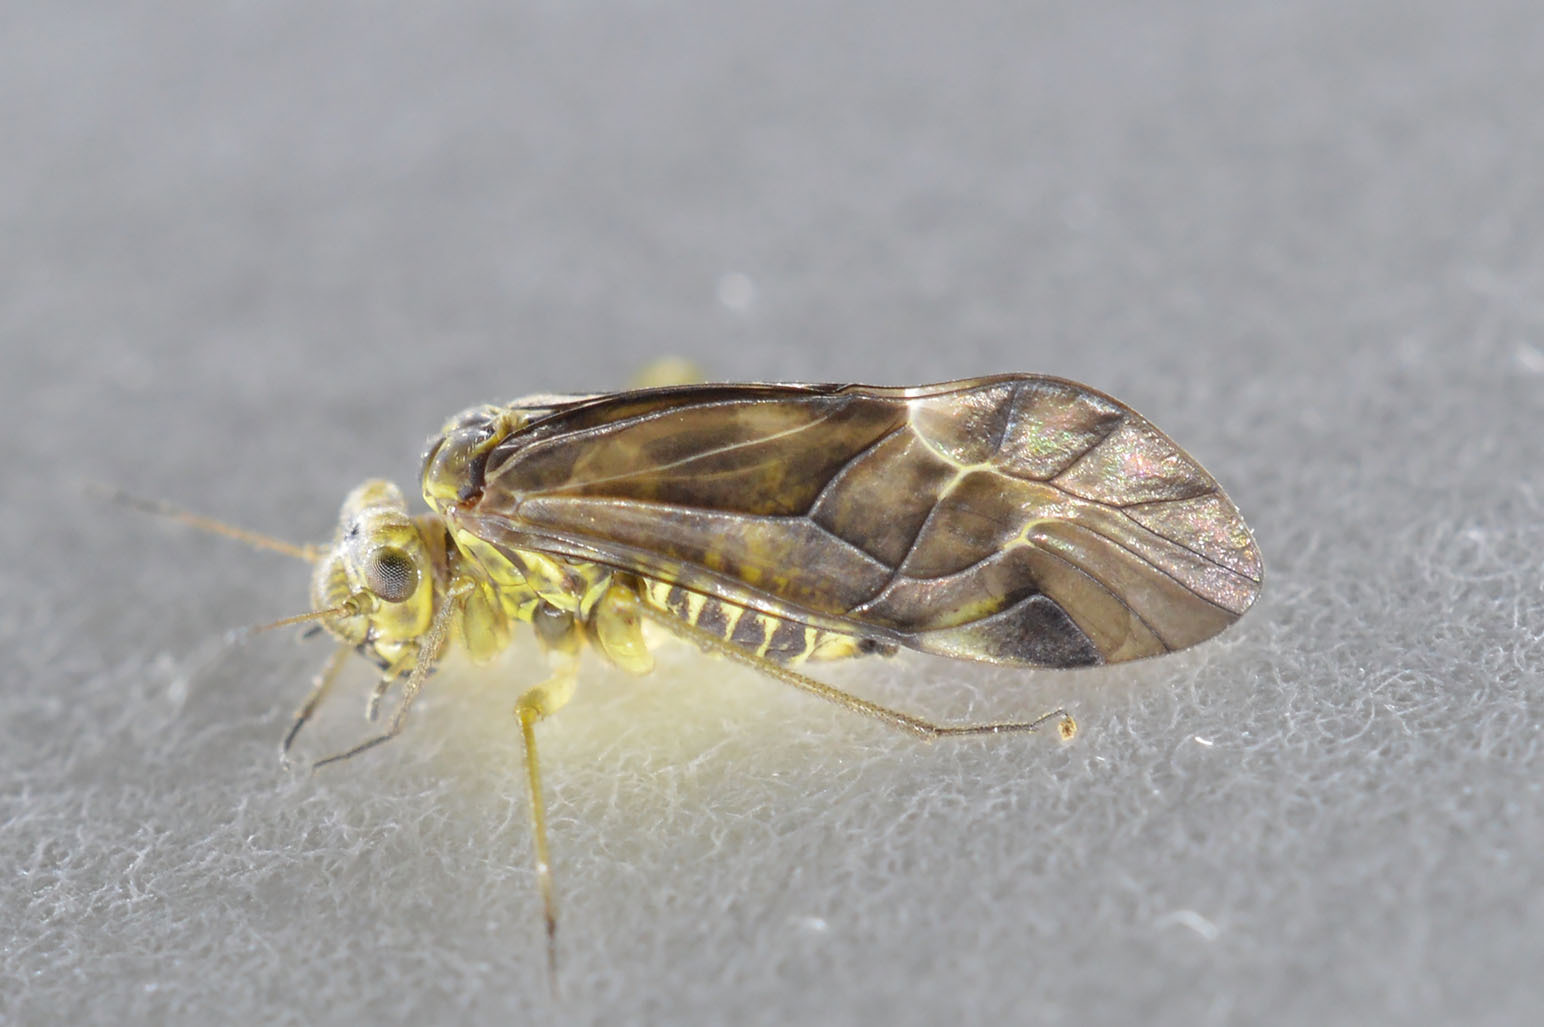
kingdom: Animalia
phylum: Arthropoda
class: Insecta
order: Psocodea
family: Psocidae
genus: Metylophorus
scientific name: Metylophorus nebulosus
